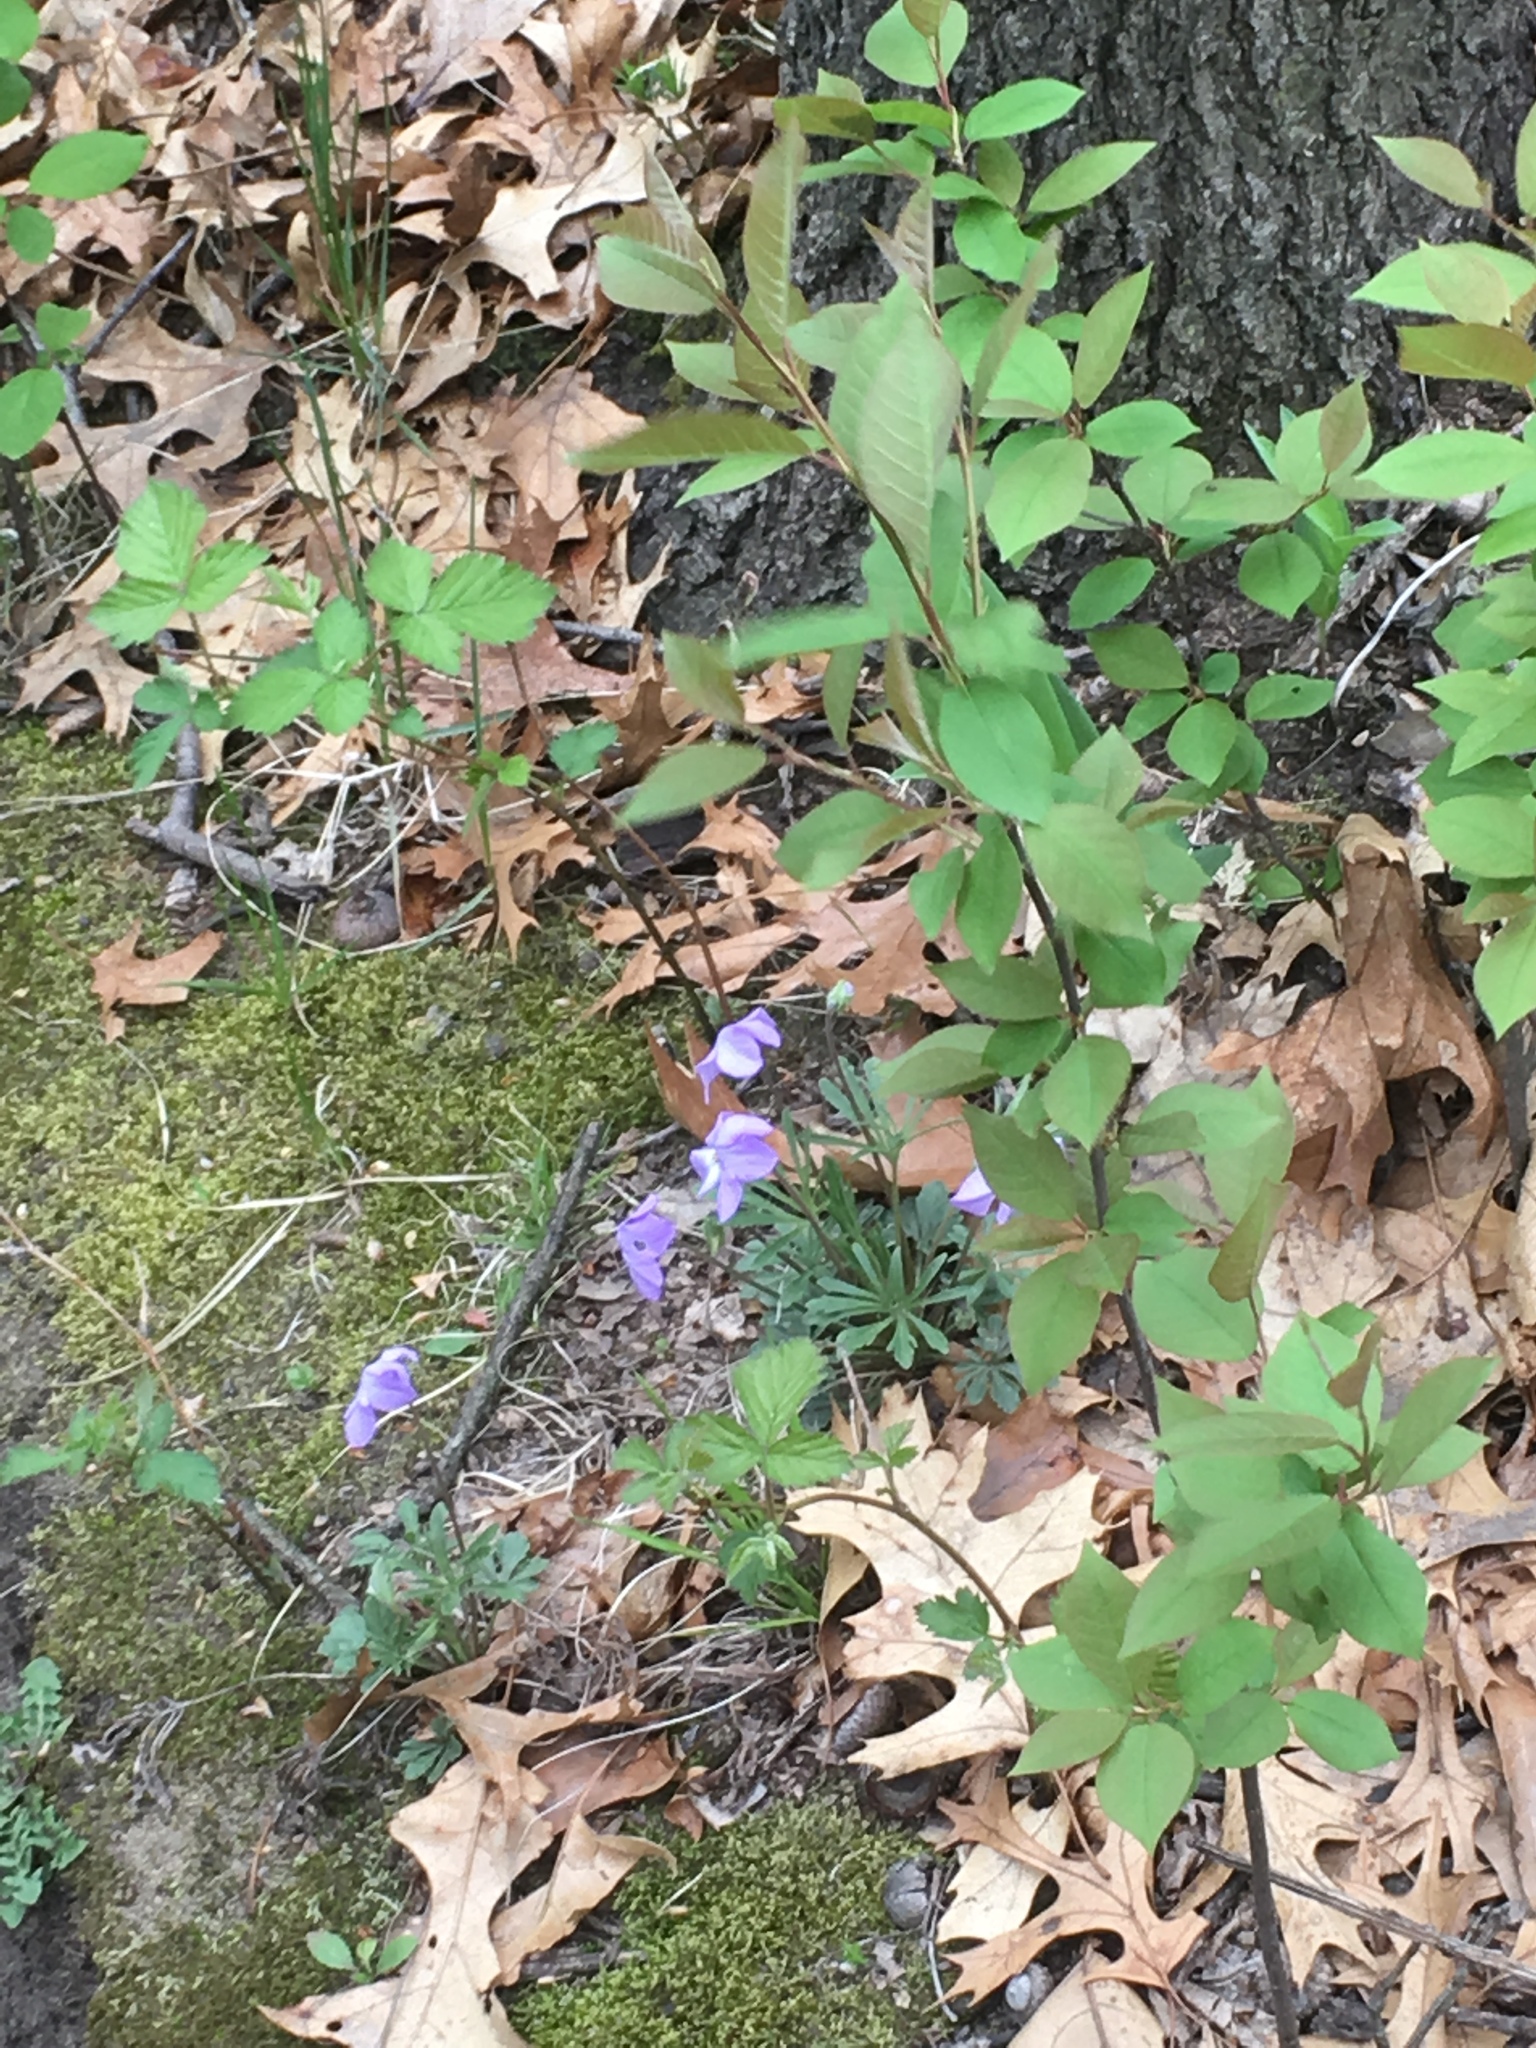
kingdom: Plantae
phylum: Tracheophyta
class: Magnoliopsida
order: Malpighiales
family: Violaceae
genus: Viola
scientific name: Viola pedata
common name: Pansy violet
